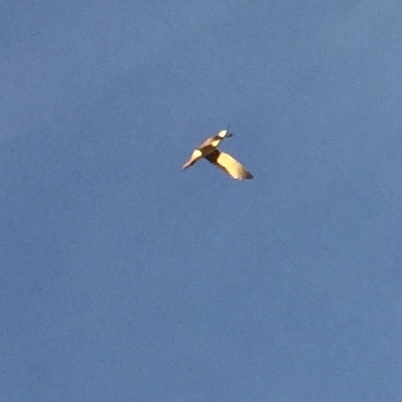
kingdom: Animalia
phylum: Chordata
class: Aves
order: Charadriiformes
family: Scolopacidae
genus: Tringa
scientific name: Tringa melanoleuca
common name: Greater yellowlegs
